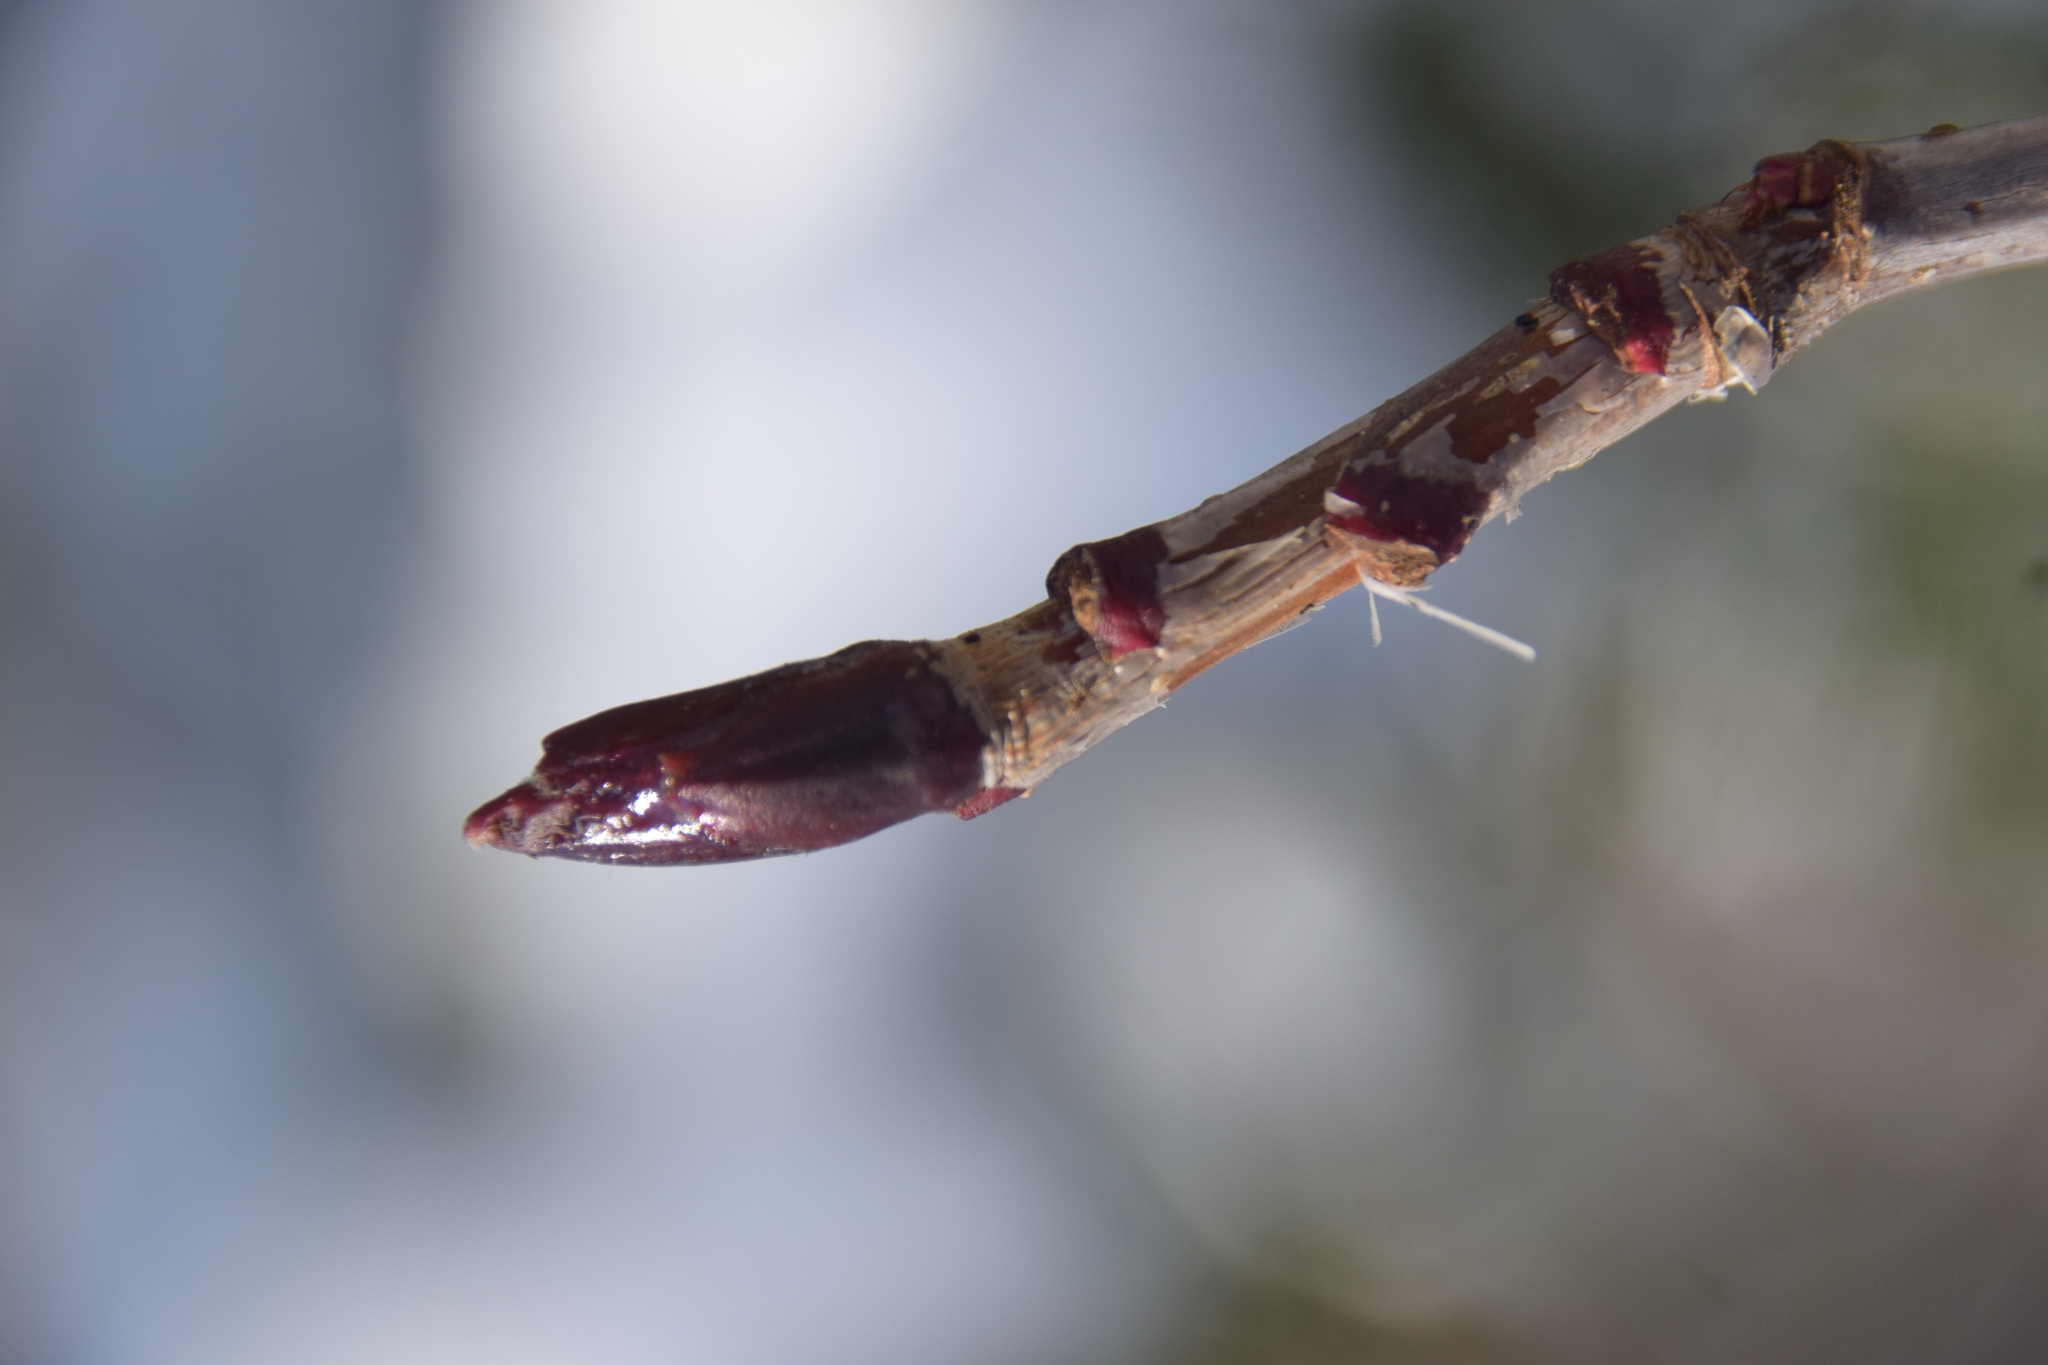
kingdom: Plantae
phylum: Tracheophyta
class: Magnoliopsida
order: Rosales
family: Rosaceae
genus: Sorbus
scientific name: Sorbus americana
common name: American mountain-ash
